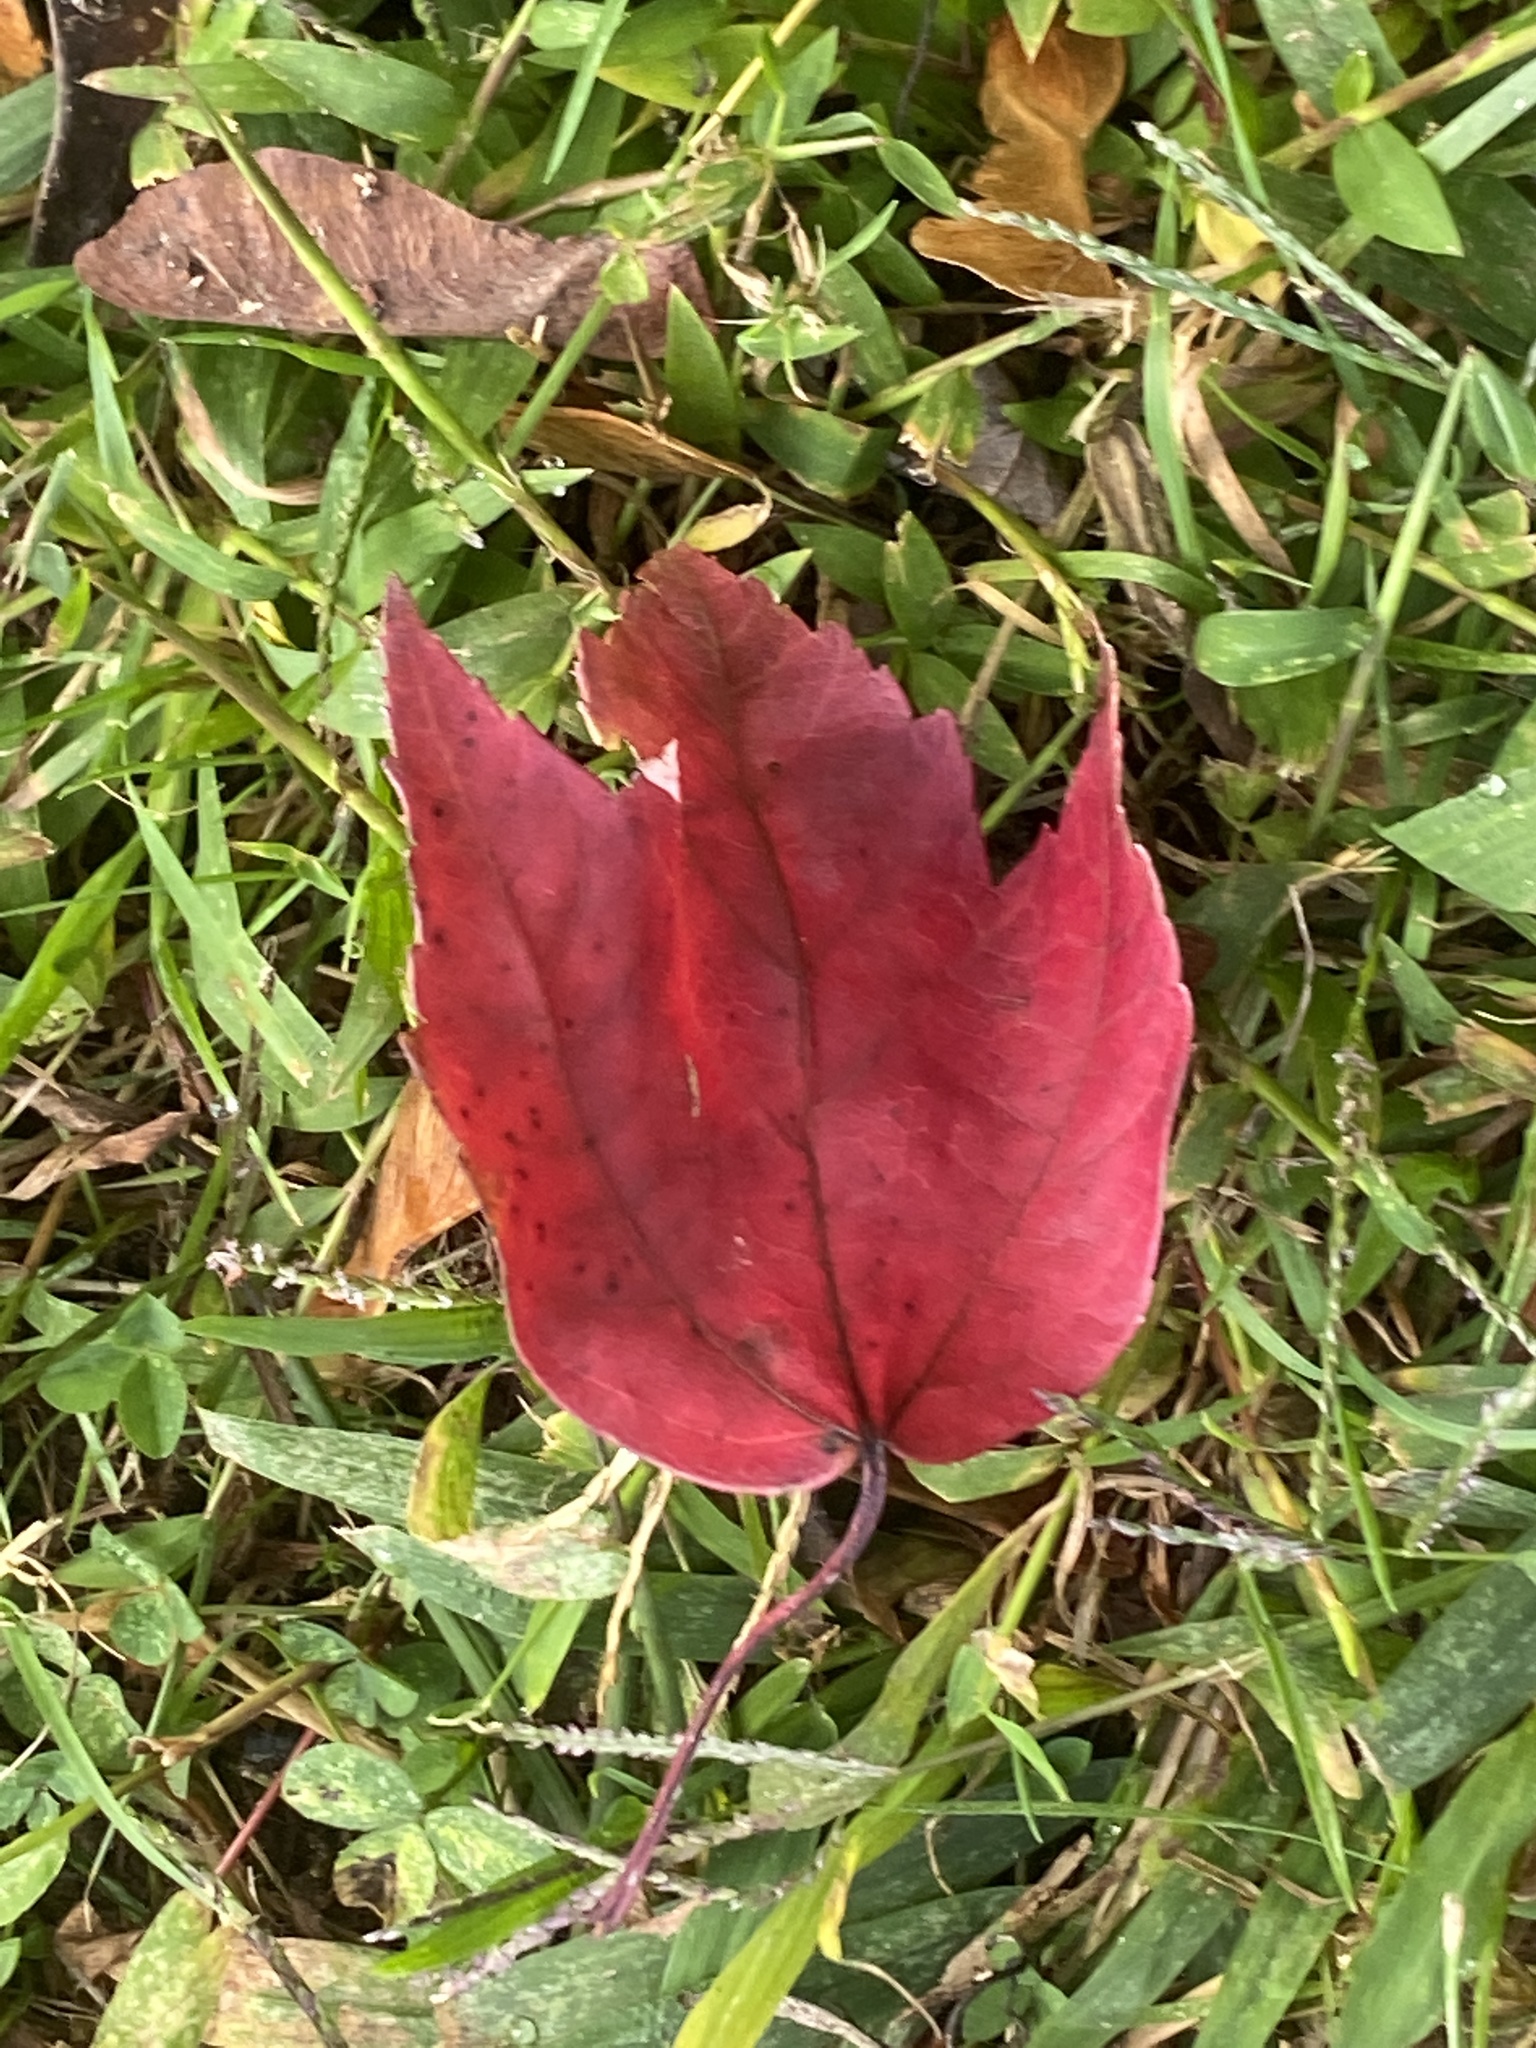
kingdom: Plantae
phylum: Tracheophyta
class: Magnoliopsida
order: Sapindales
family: Sapindaceae
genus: Acer
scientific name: Acer rubrum
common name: Red maple
